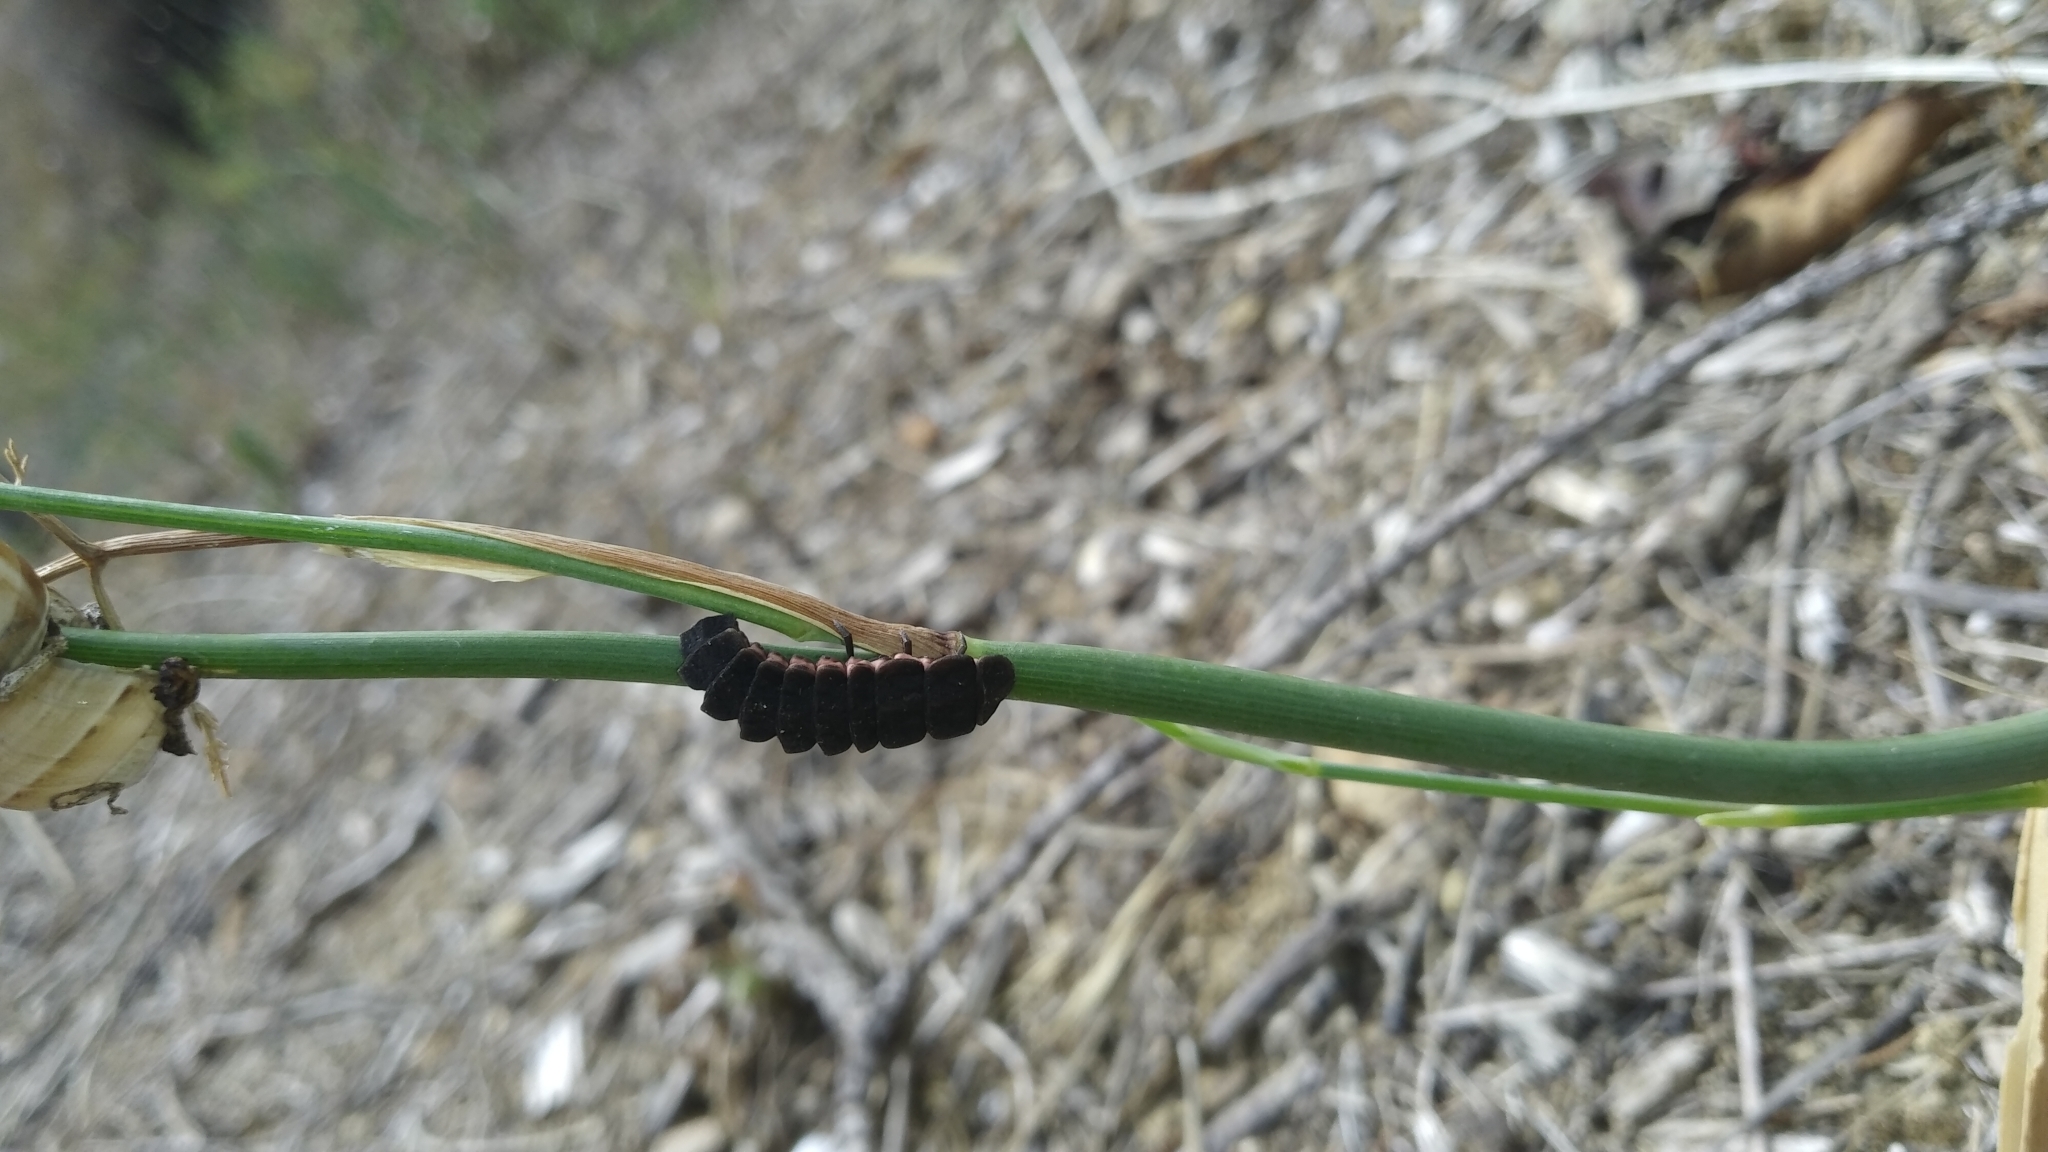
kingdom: Animalia
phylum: Arthropoda
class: Insecta
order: Coleoptera
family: Lampyridae
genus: Nyctophila
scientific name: Nyctophila reichii
